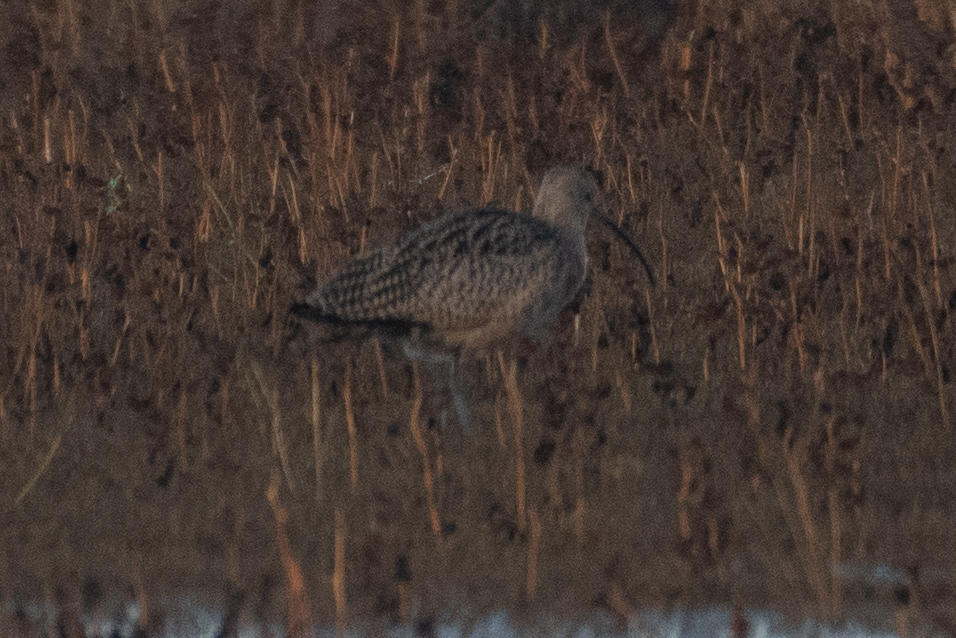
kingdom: Animalia
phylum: Chordata
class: Aves
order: Charadriiformes
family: Scolopacidae
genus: Numenius
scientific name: Numenius americanus
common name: Long-billed curlew
